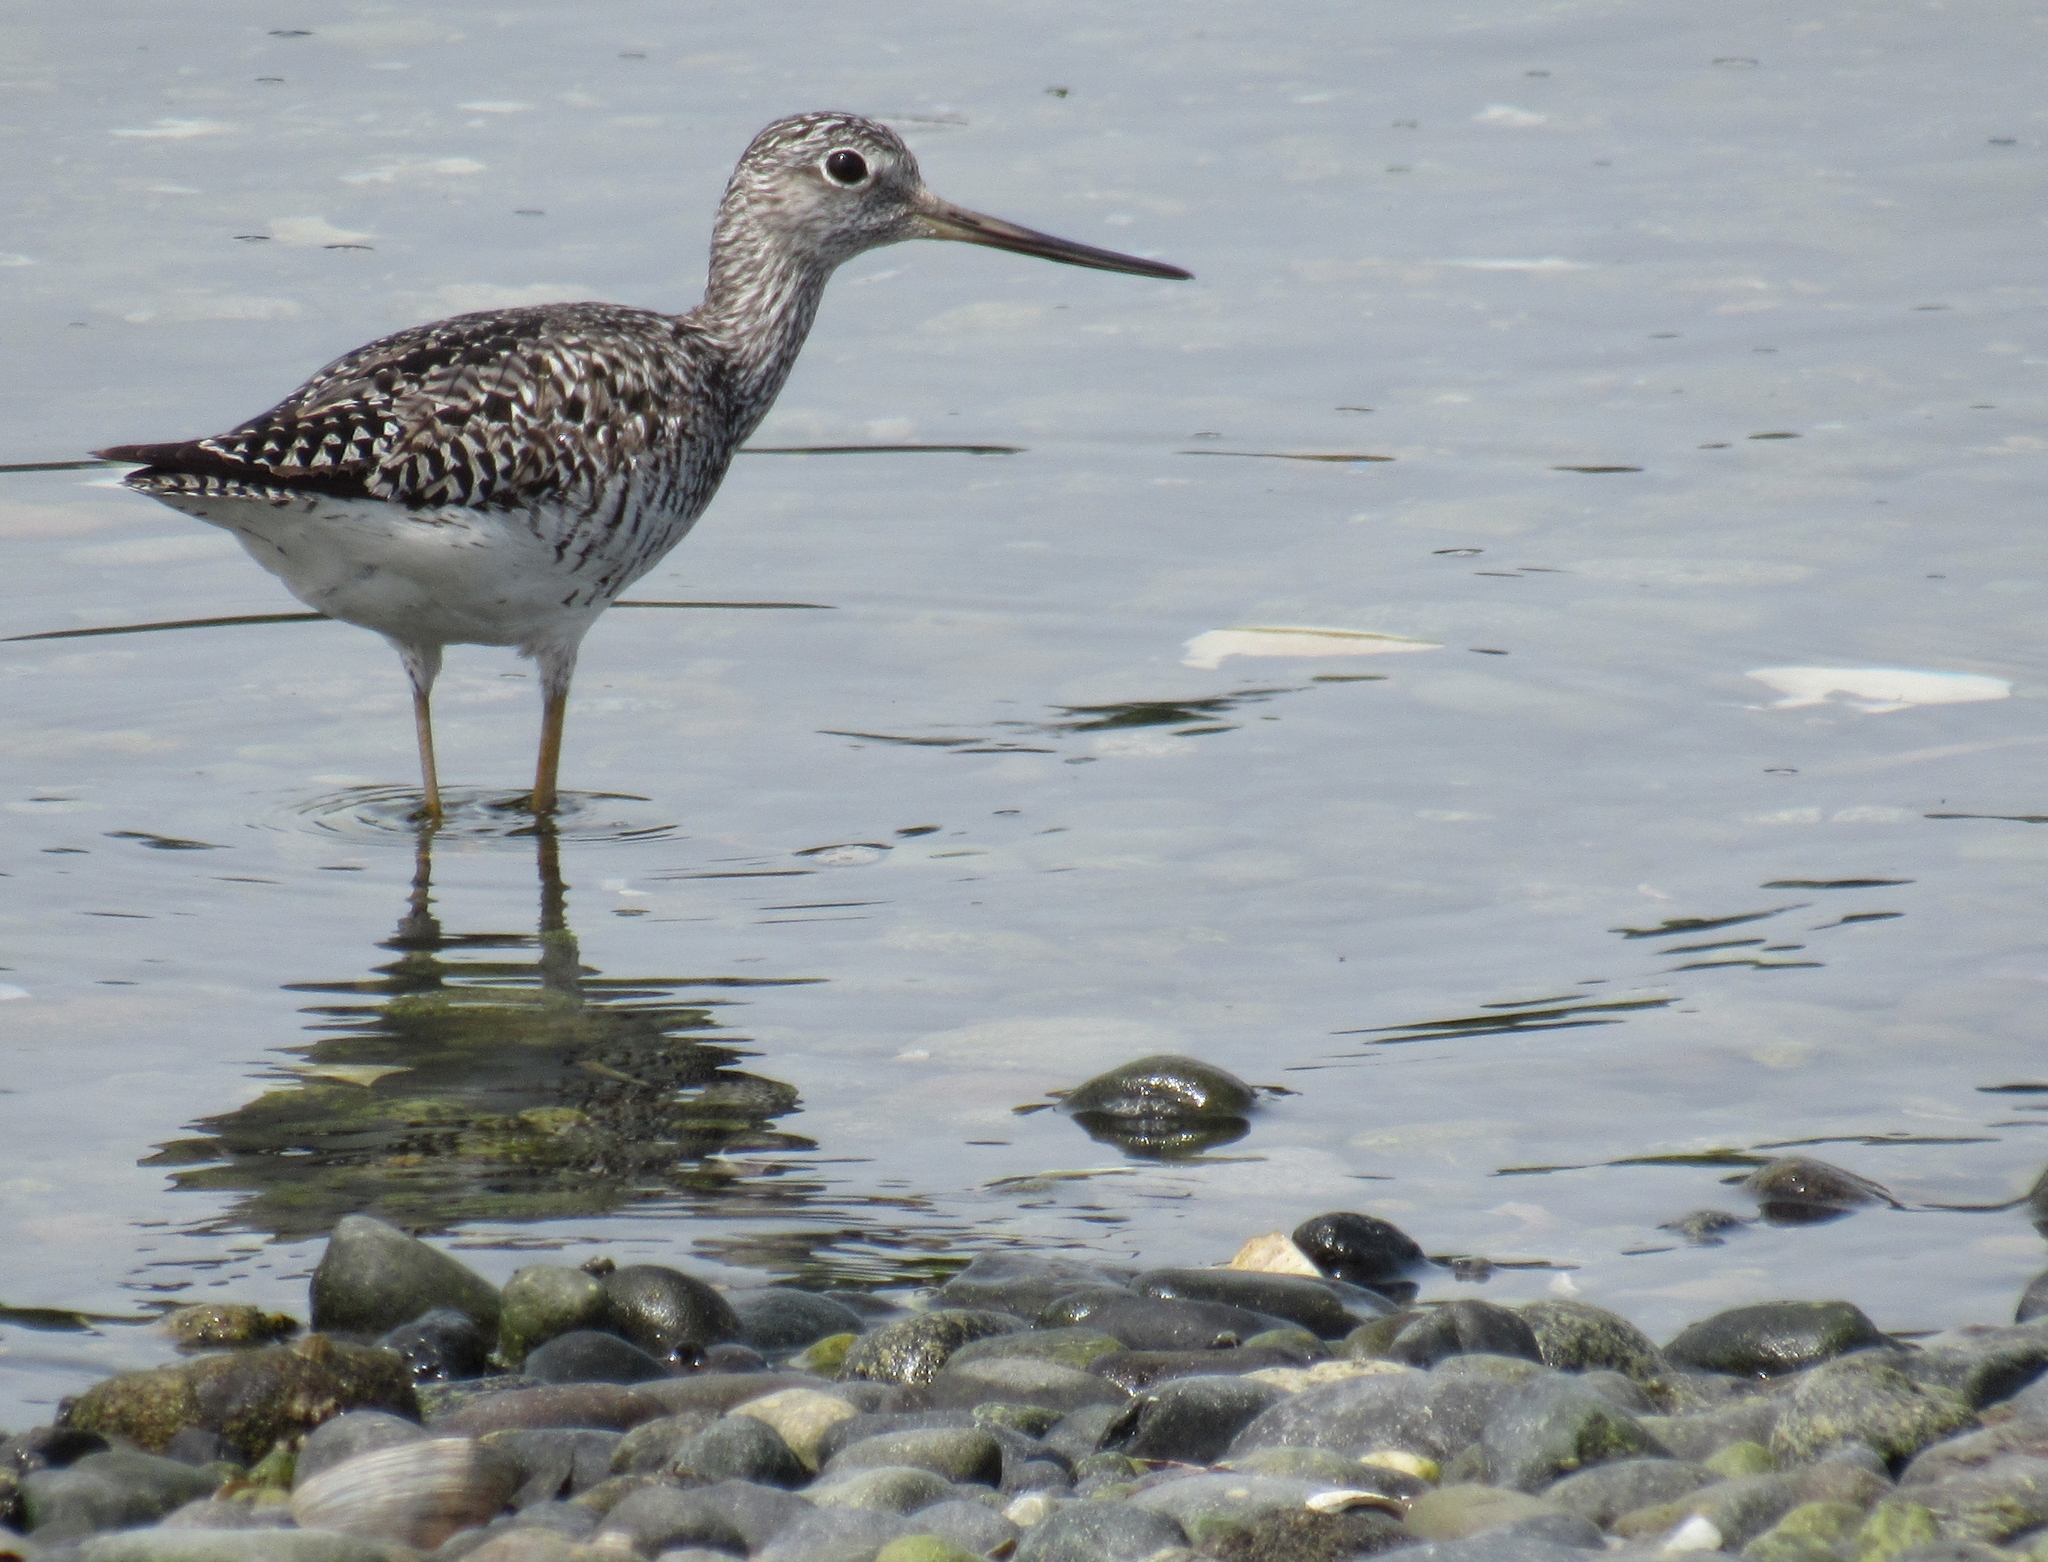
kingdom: Animalia
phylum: Chordata
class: Aves
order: Charadriiformes
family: Scolopacidae
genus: Tringa
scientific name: Tringa melanoleuca
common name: Greater yellowlegs
